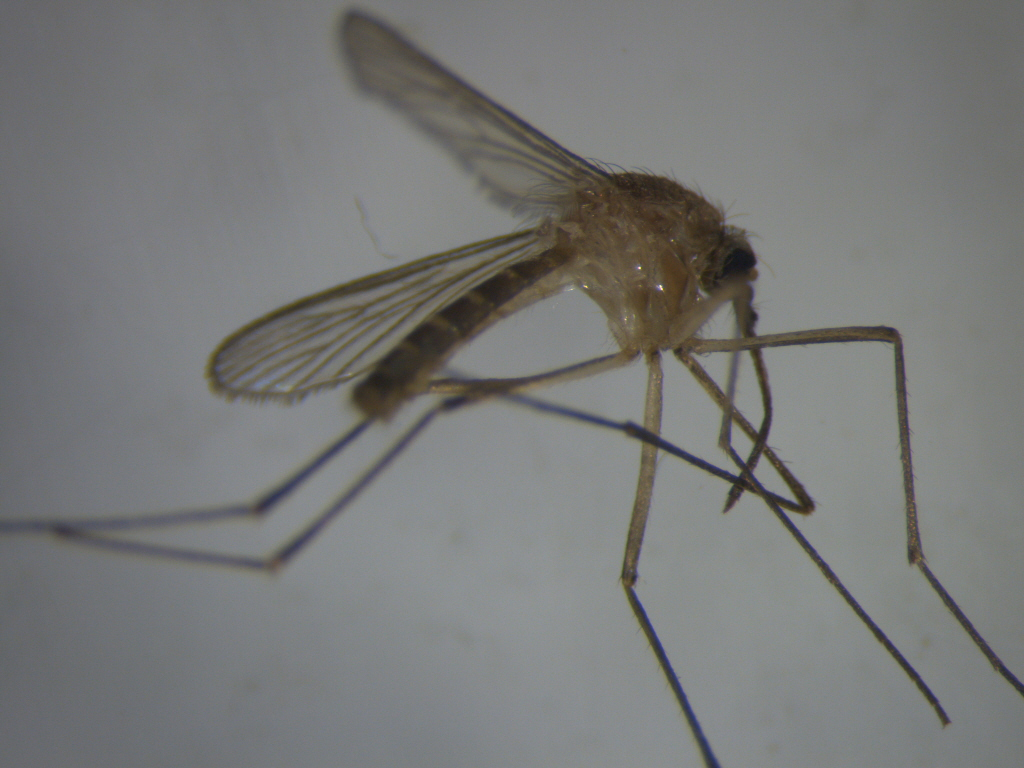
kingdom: Animalia
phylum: Arthropoda
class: Insecta
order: Diptera
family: Culicidae
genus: Culex
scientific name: Culex quinquefasciatus
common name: Southern house mosquito
